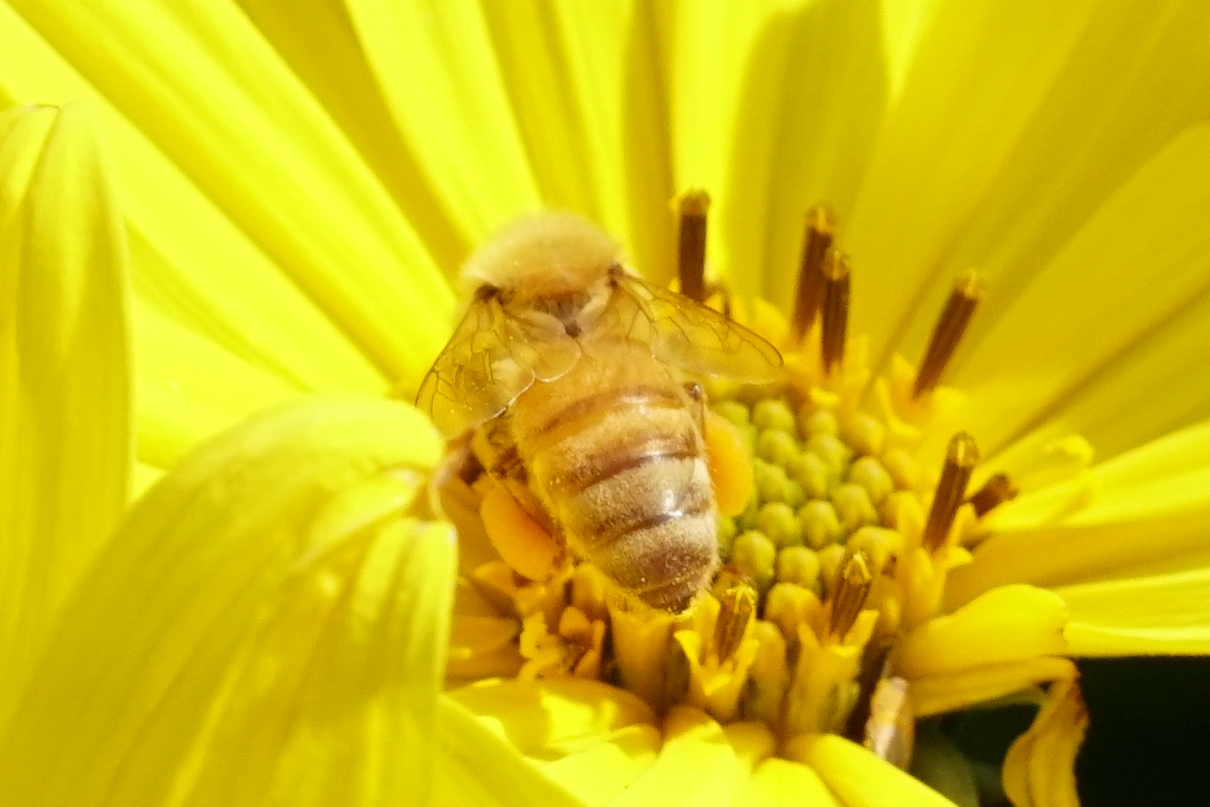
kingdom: Animalia
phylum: Arthropoda
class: Insecta
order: Hymenoptera
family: Apidae
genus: Apis
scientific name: Apis mellifera
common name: Honey bee
